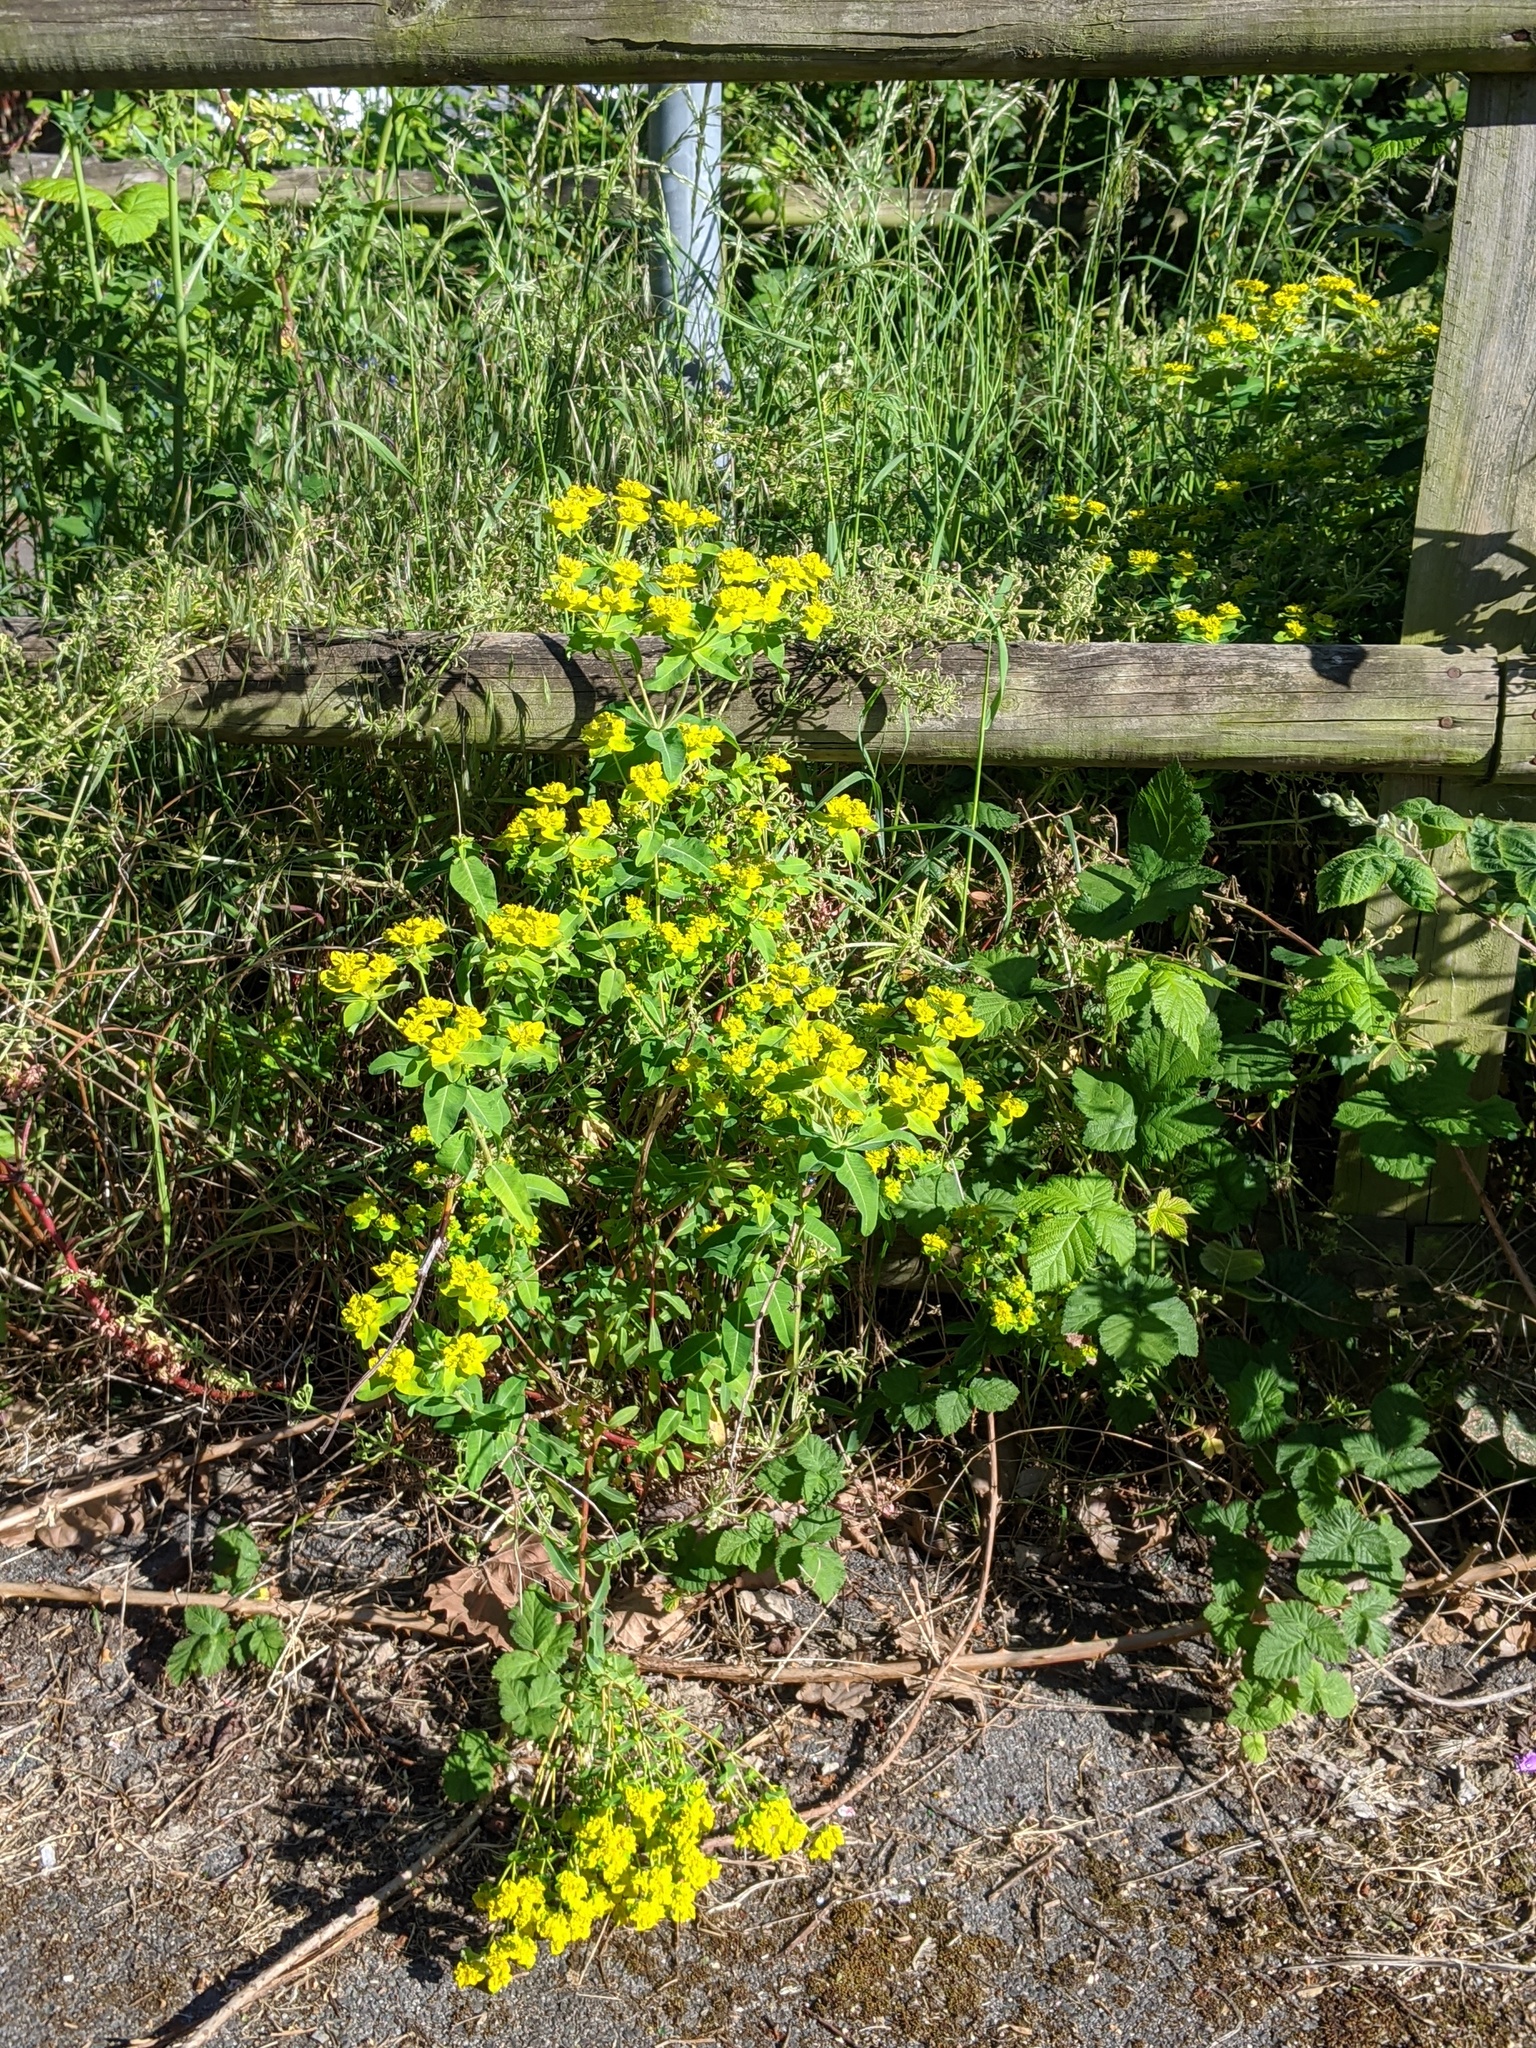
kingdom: Plantae
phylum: Tracheophyta
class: Magnoliopsida
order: Malpighiales
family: Euphorbiaceae
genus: Euphorbia
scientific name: Euphorbia oblongata
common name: Balkan spurge
